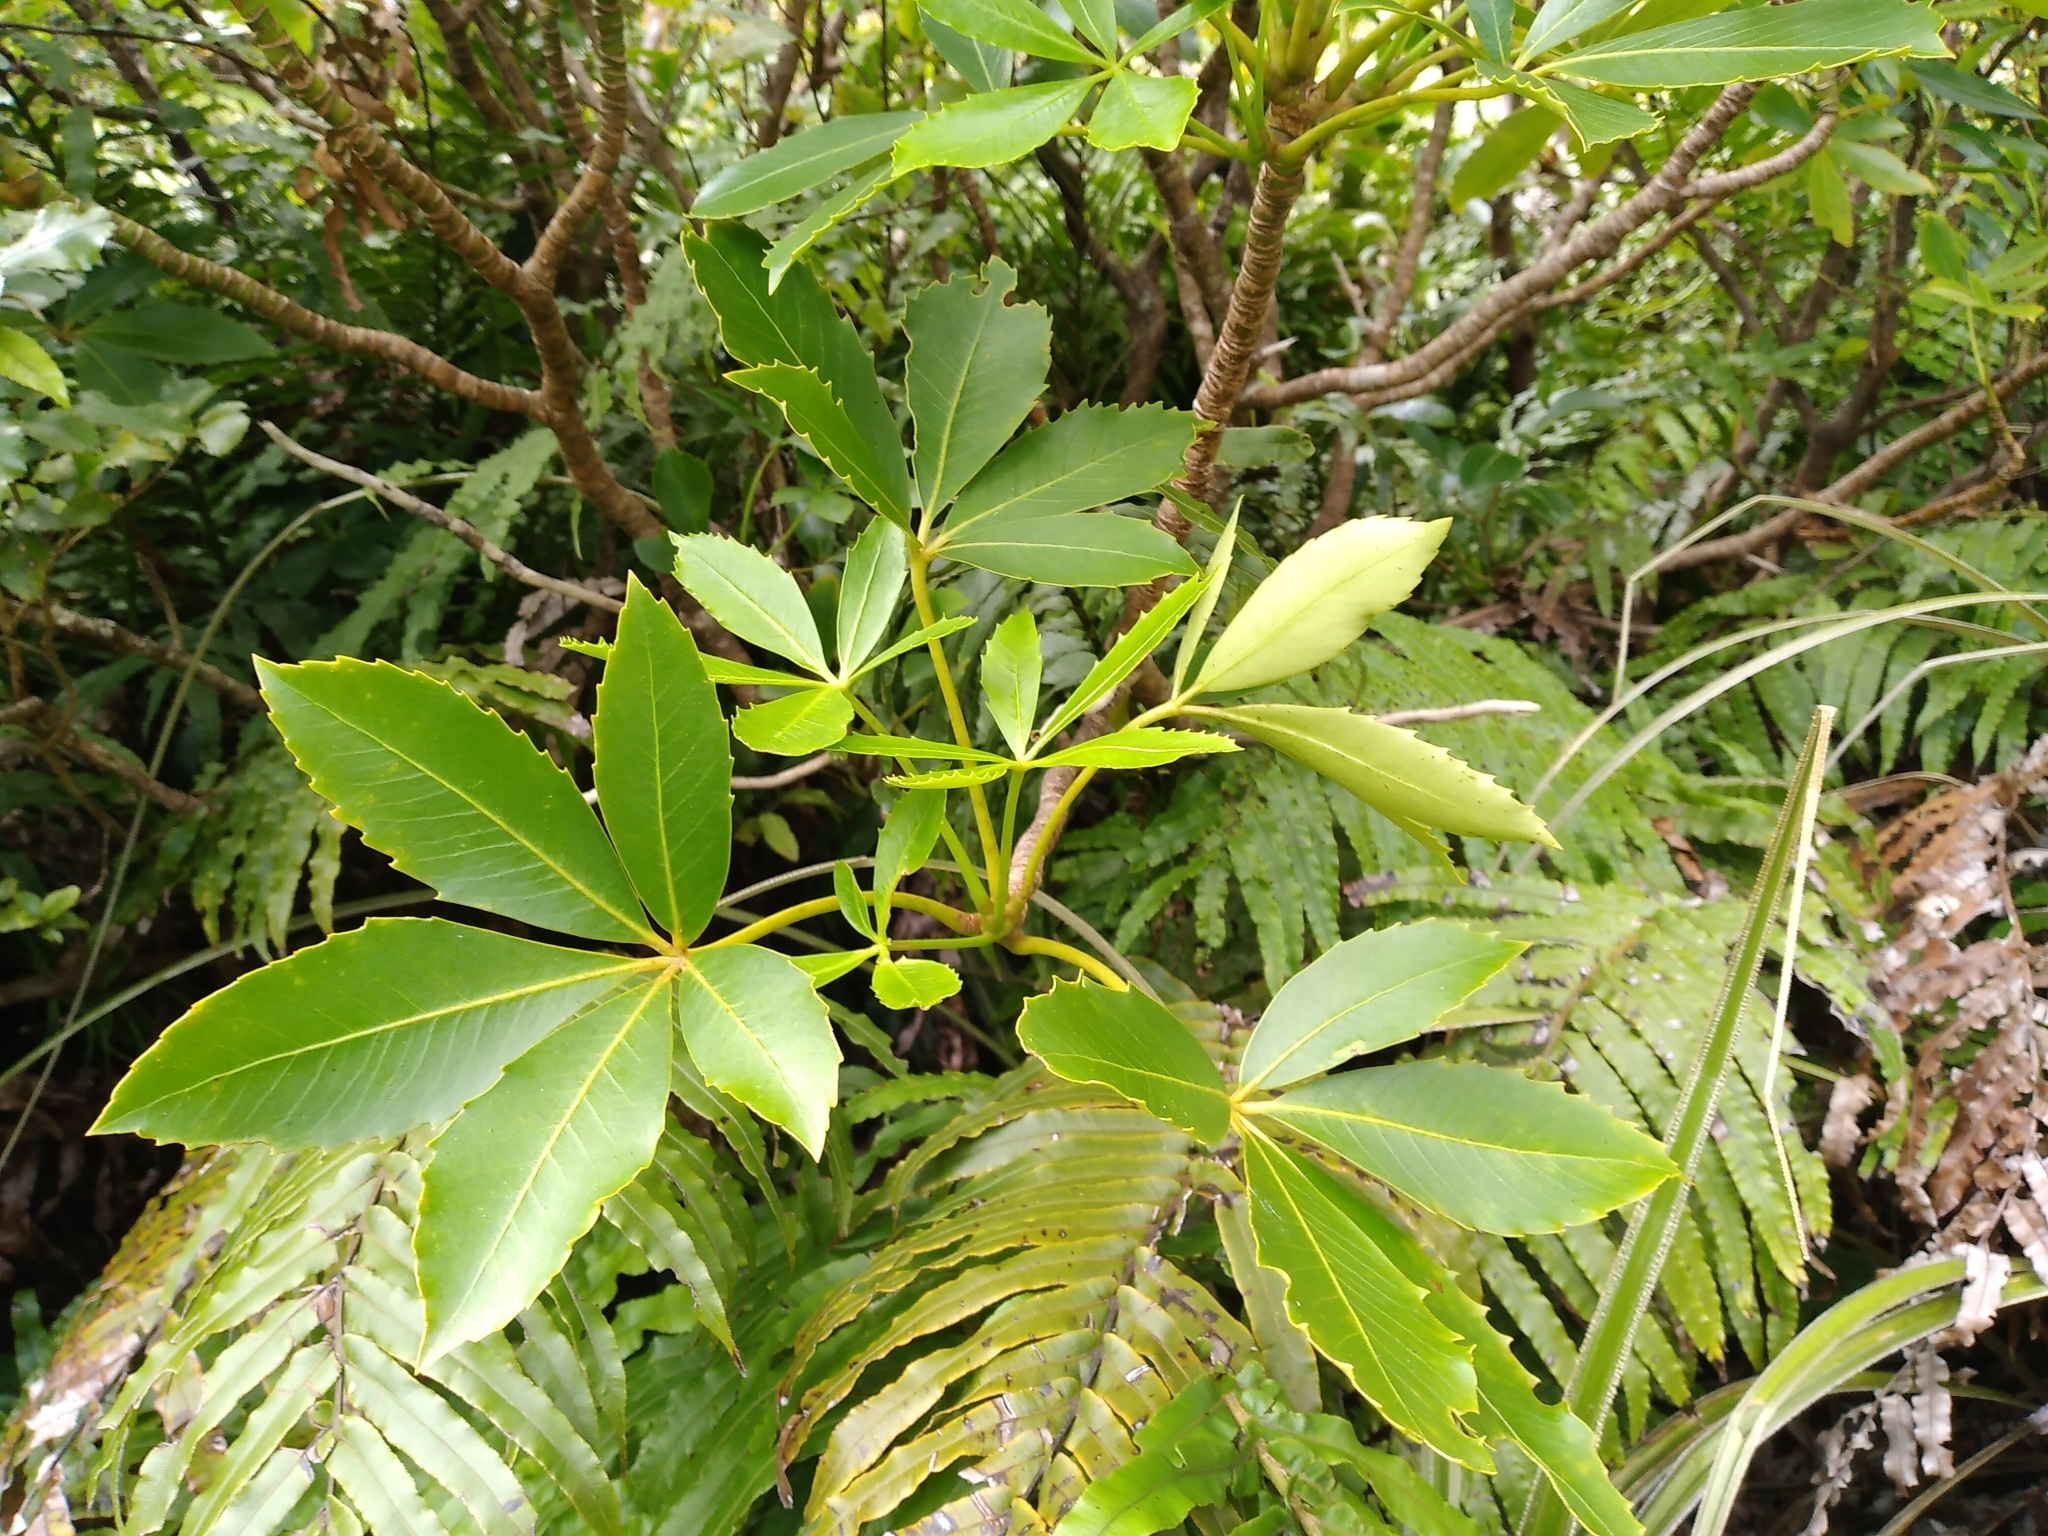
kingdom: Plantae
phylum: Tracheophyta
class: Magnoliopsida
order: Apiales
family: Araliaceae
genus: Neopanax
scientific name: Neopanax colensoi
